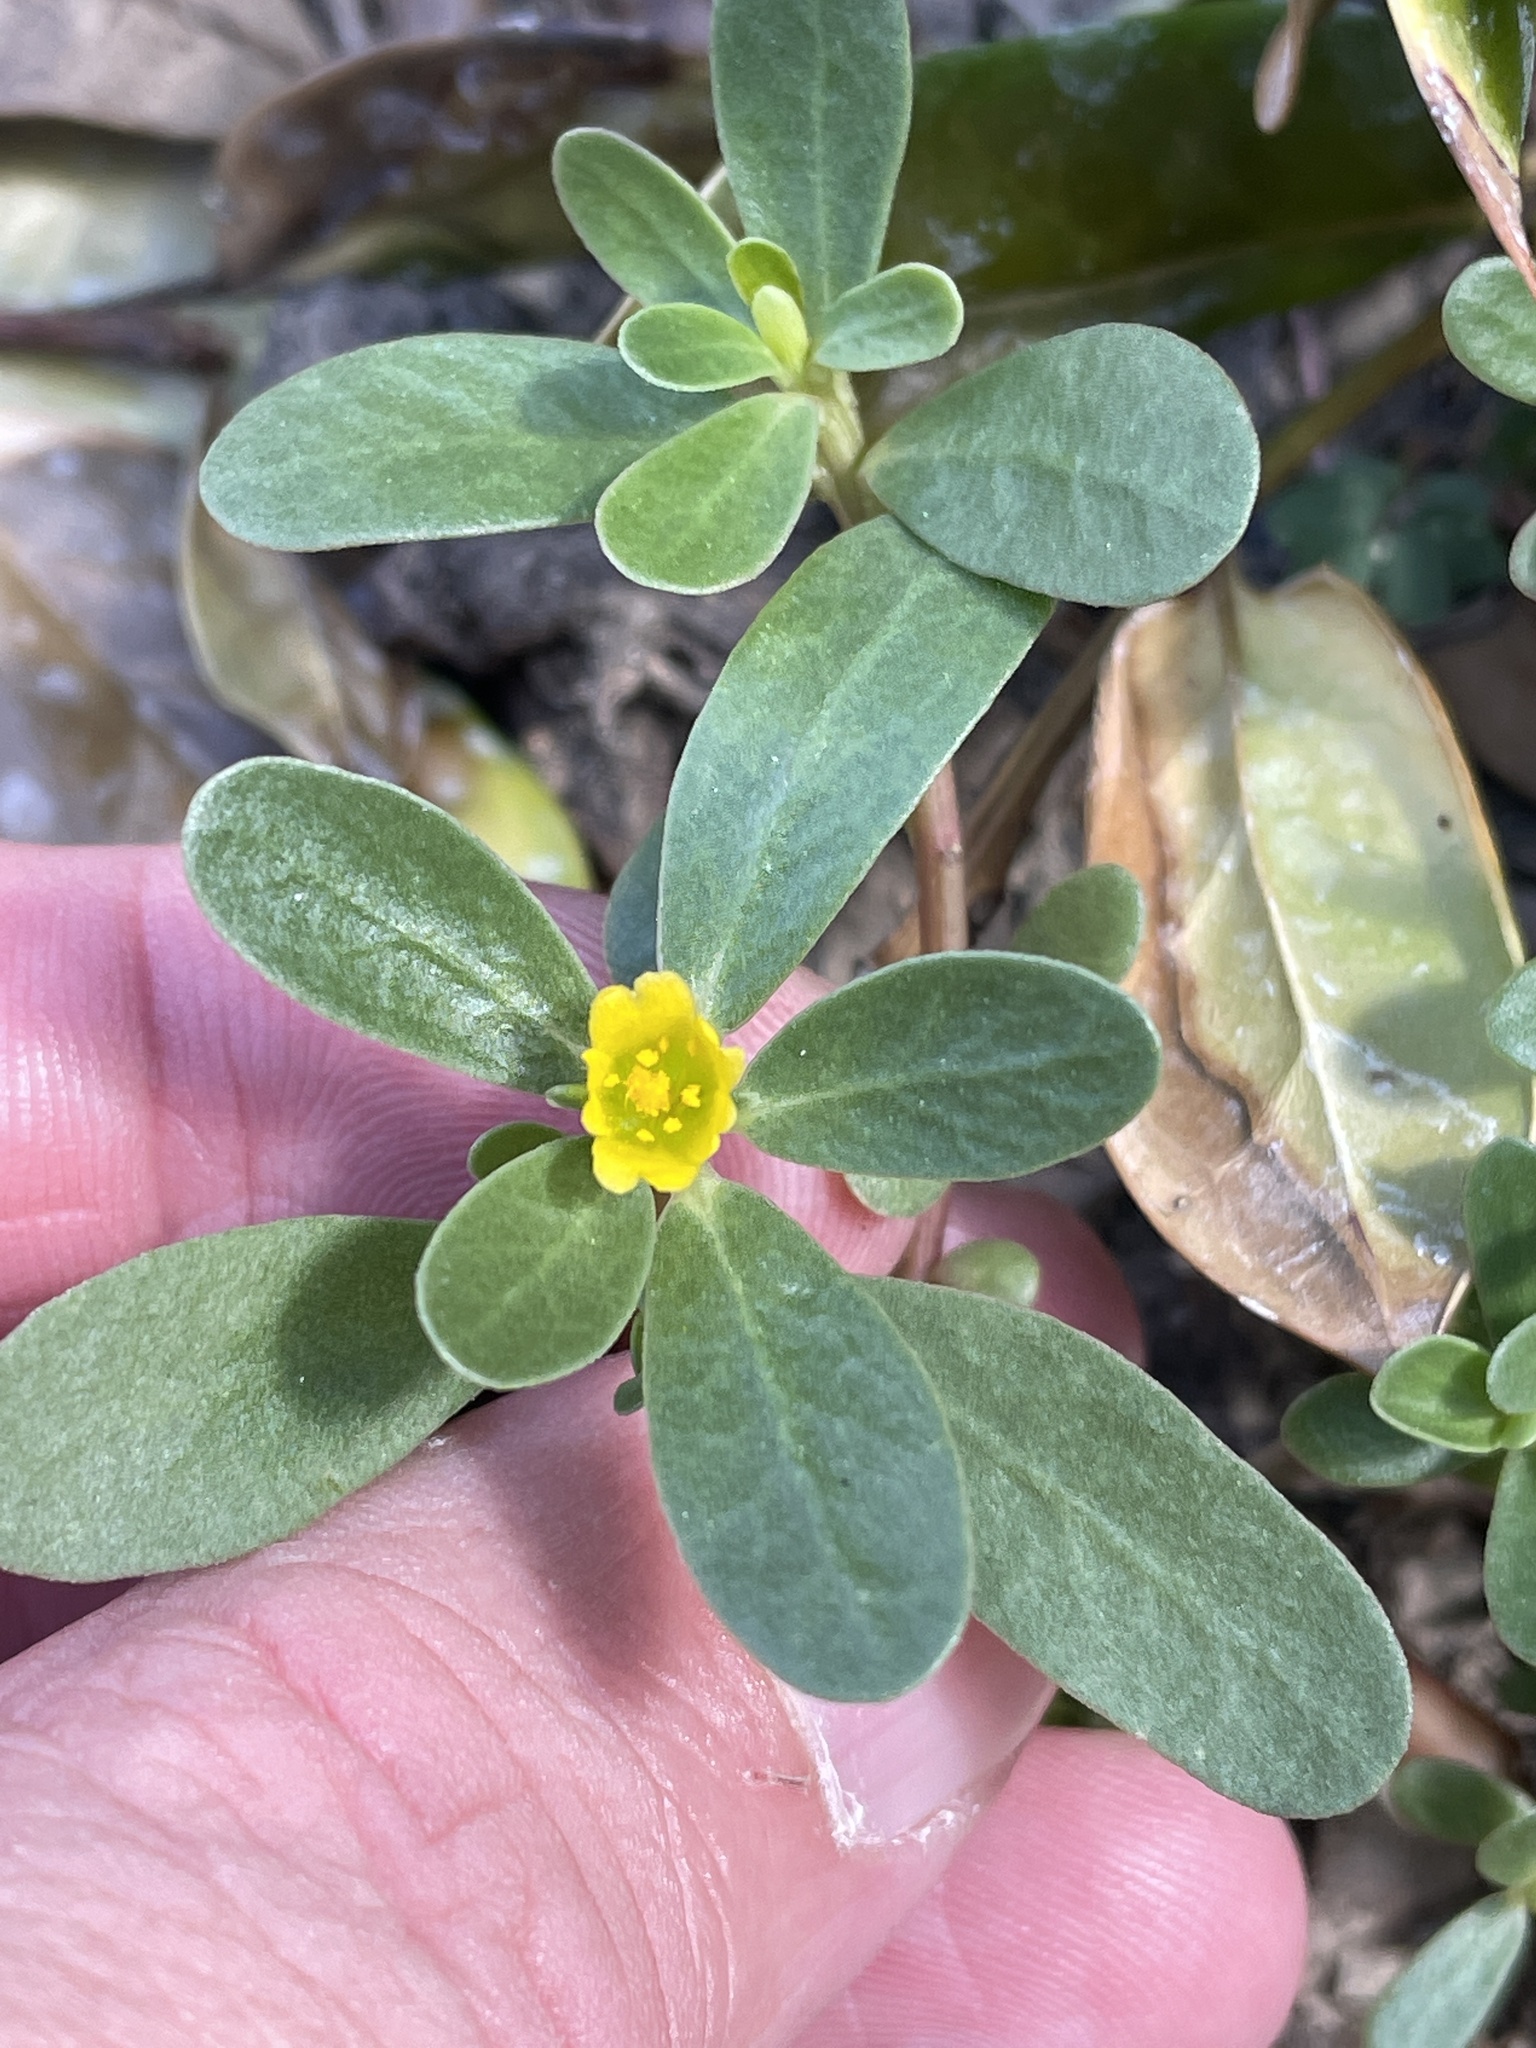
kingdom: Plantae
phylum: Tracheophyta
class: Magnoliopsida
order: Caryophyllales
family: Portulacaceae
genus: Portulaca
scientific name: Portulaca oleracea
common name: Common purslane
